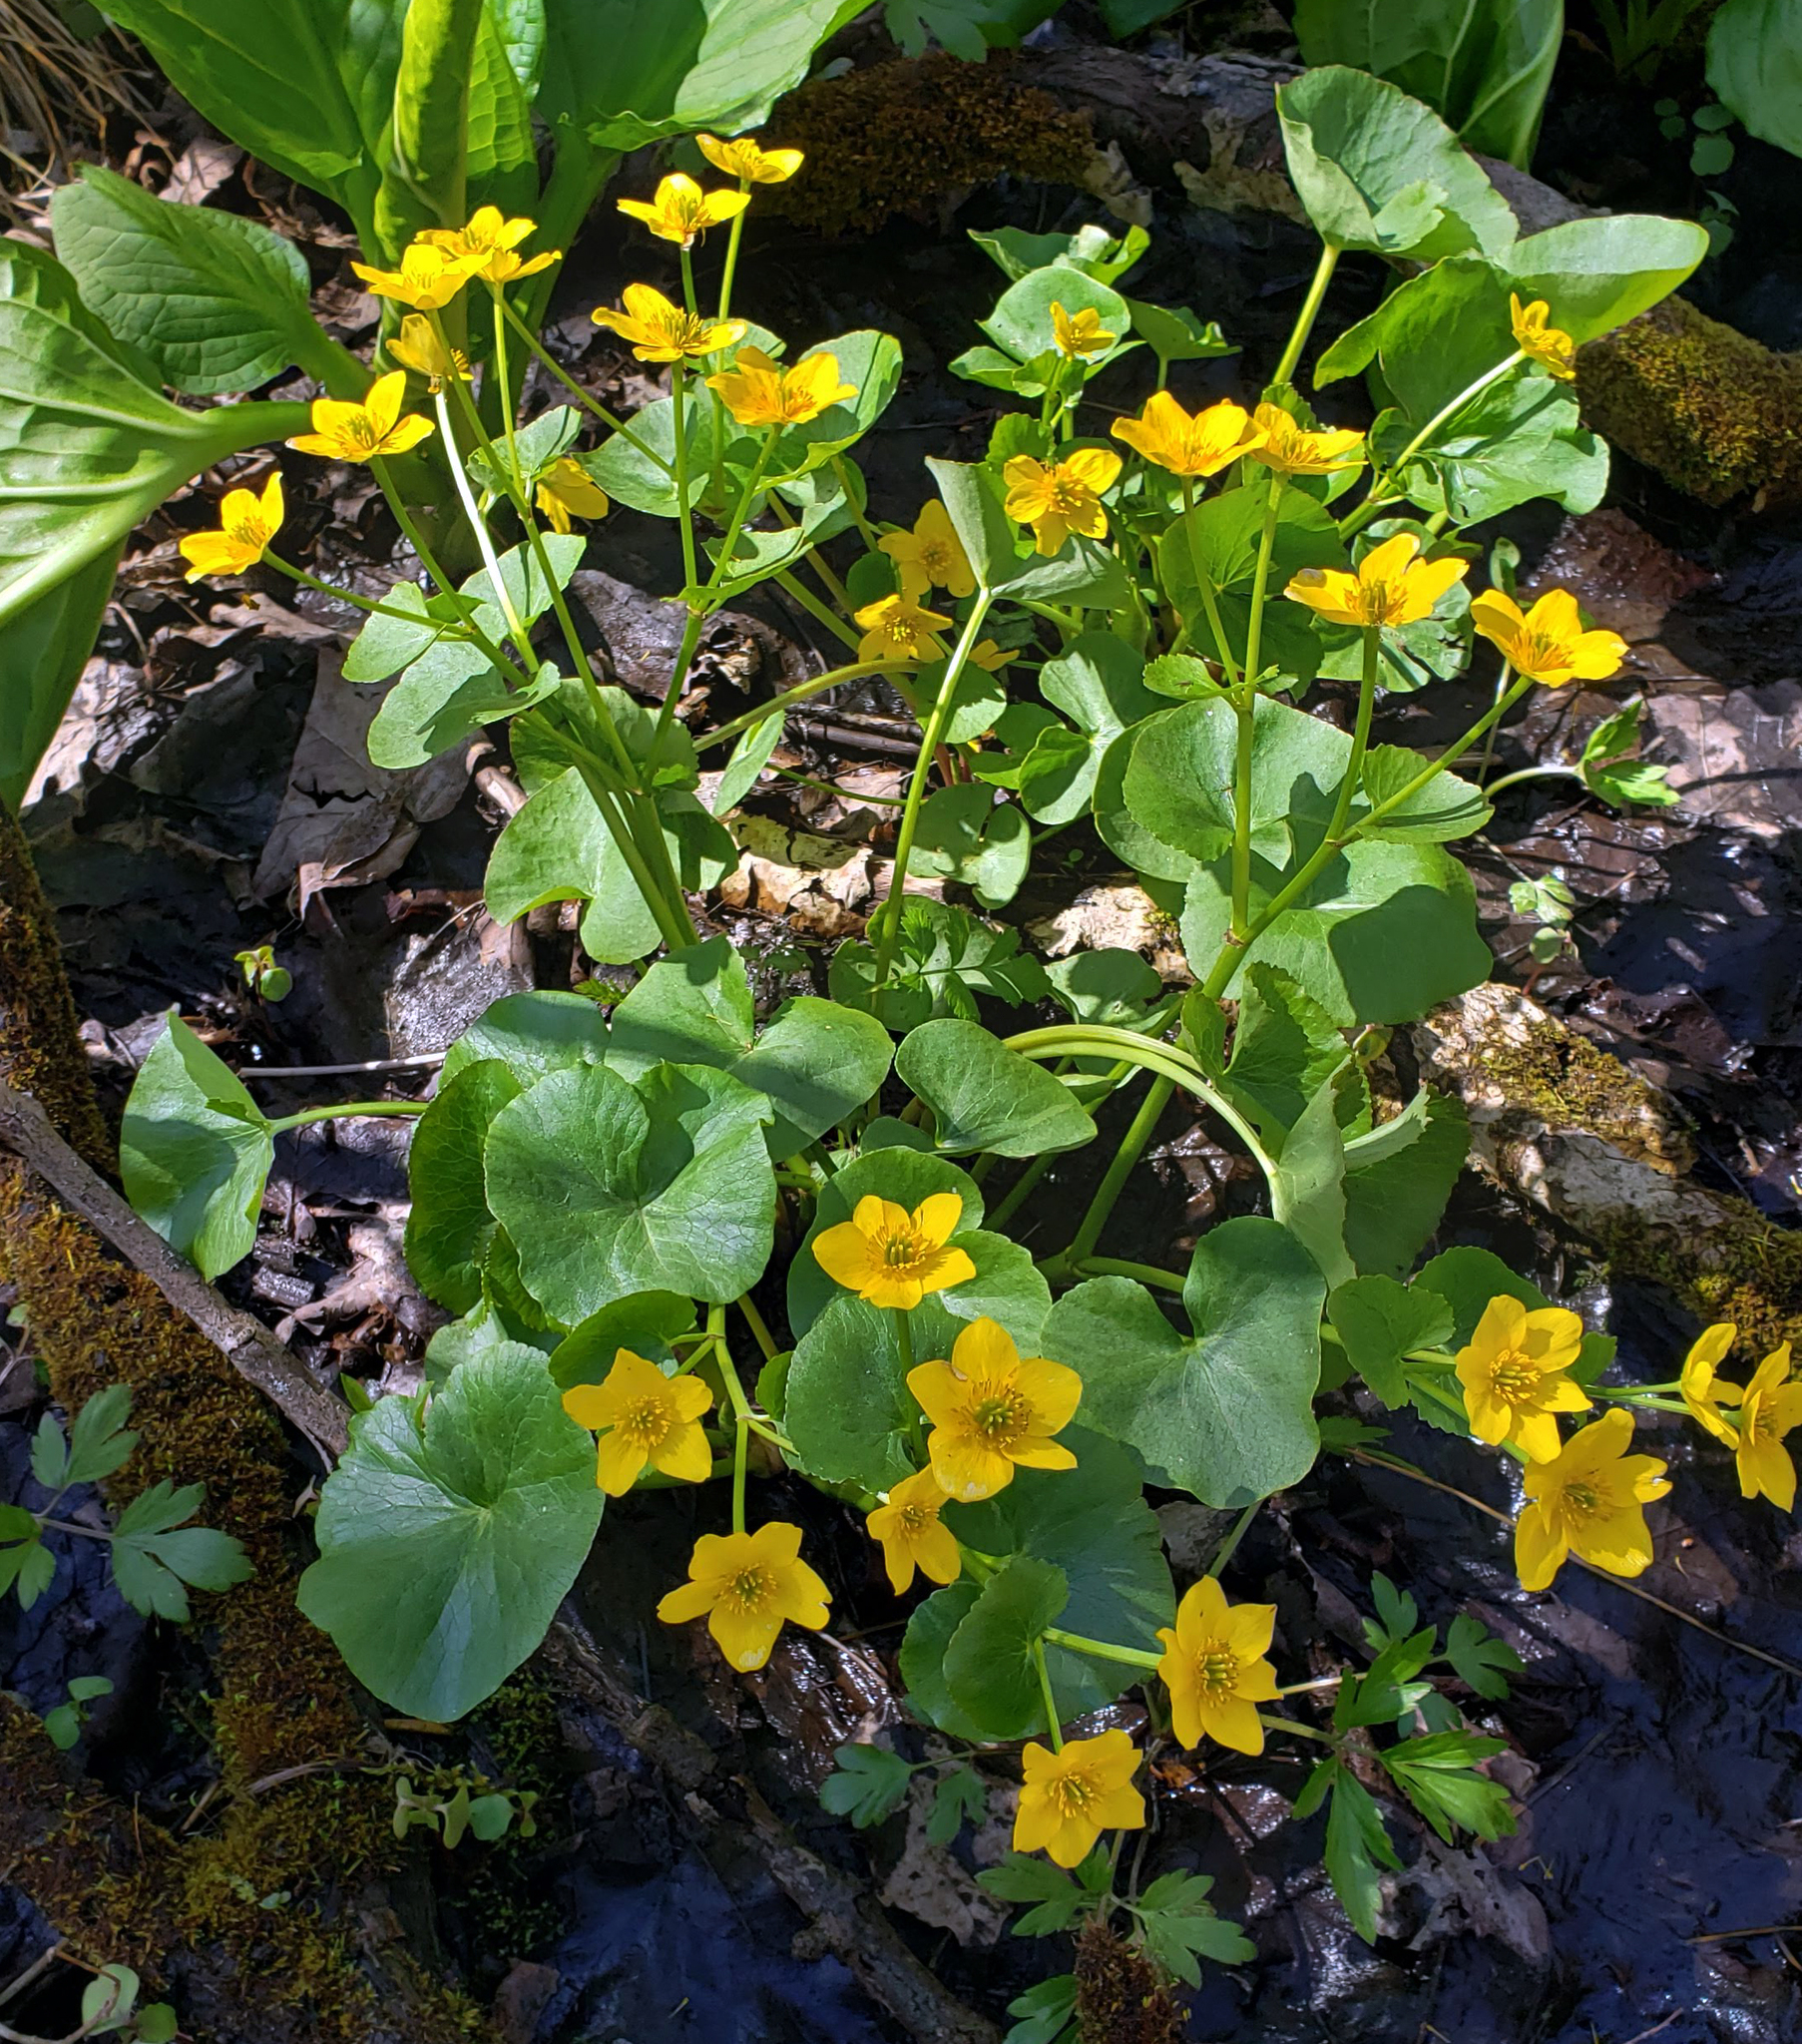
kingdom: Plantae
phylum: Tracheophyta
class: Magnoliopsida
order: Ranunculales
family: Ranunculaceae
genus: Caltha
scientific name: Caltha palustris
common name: Marsh marigold
